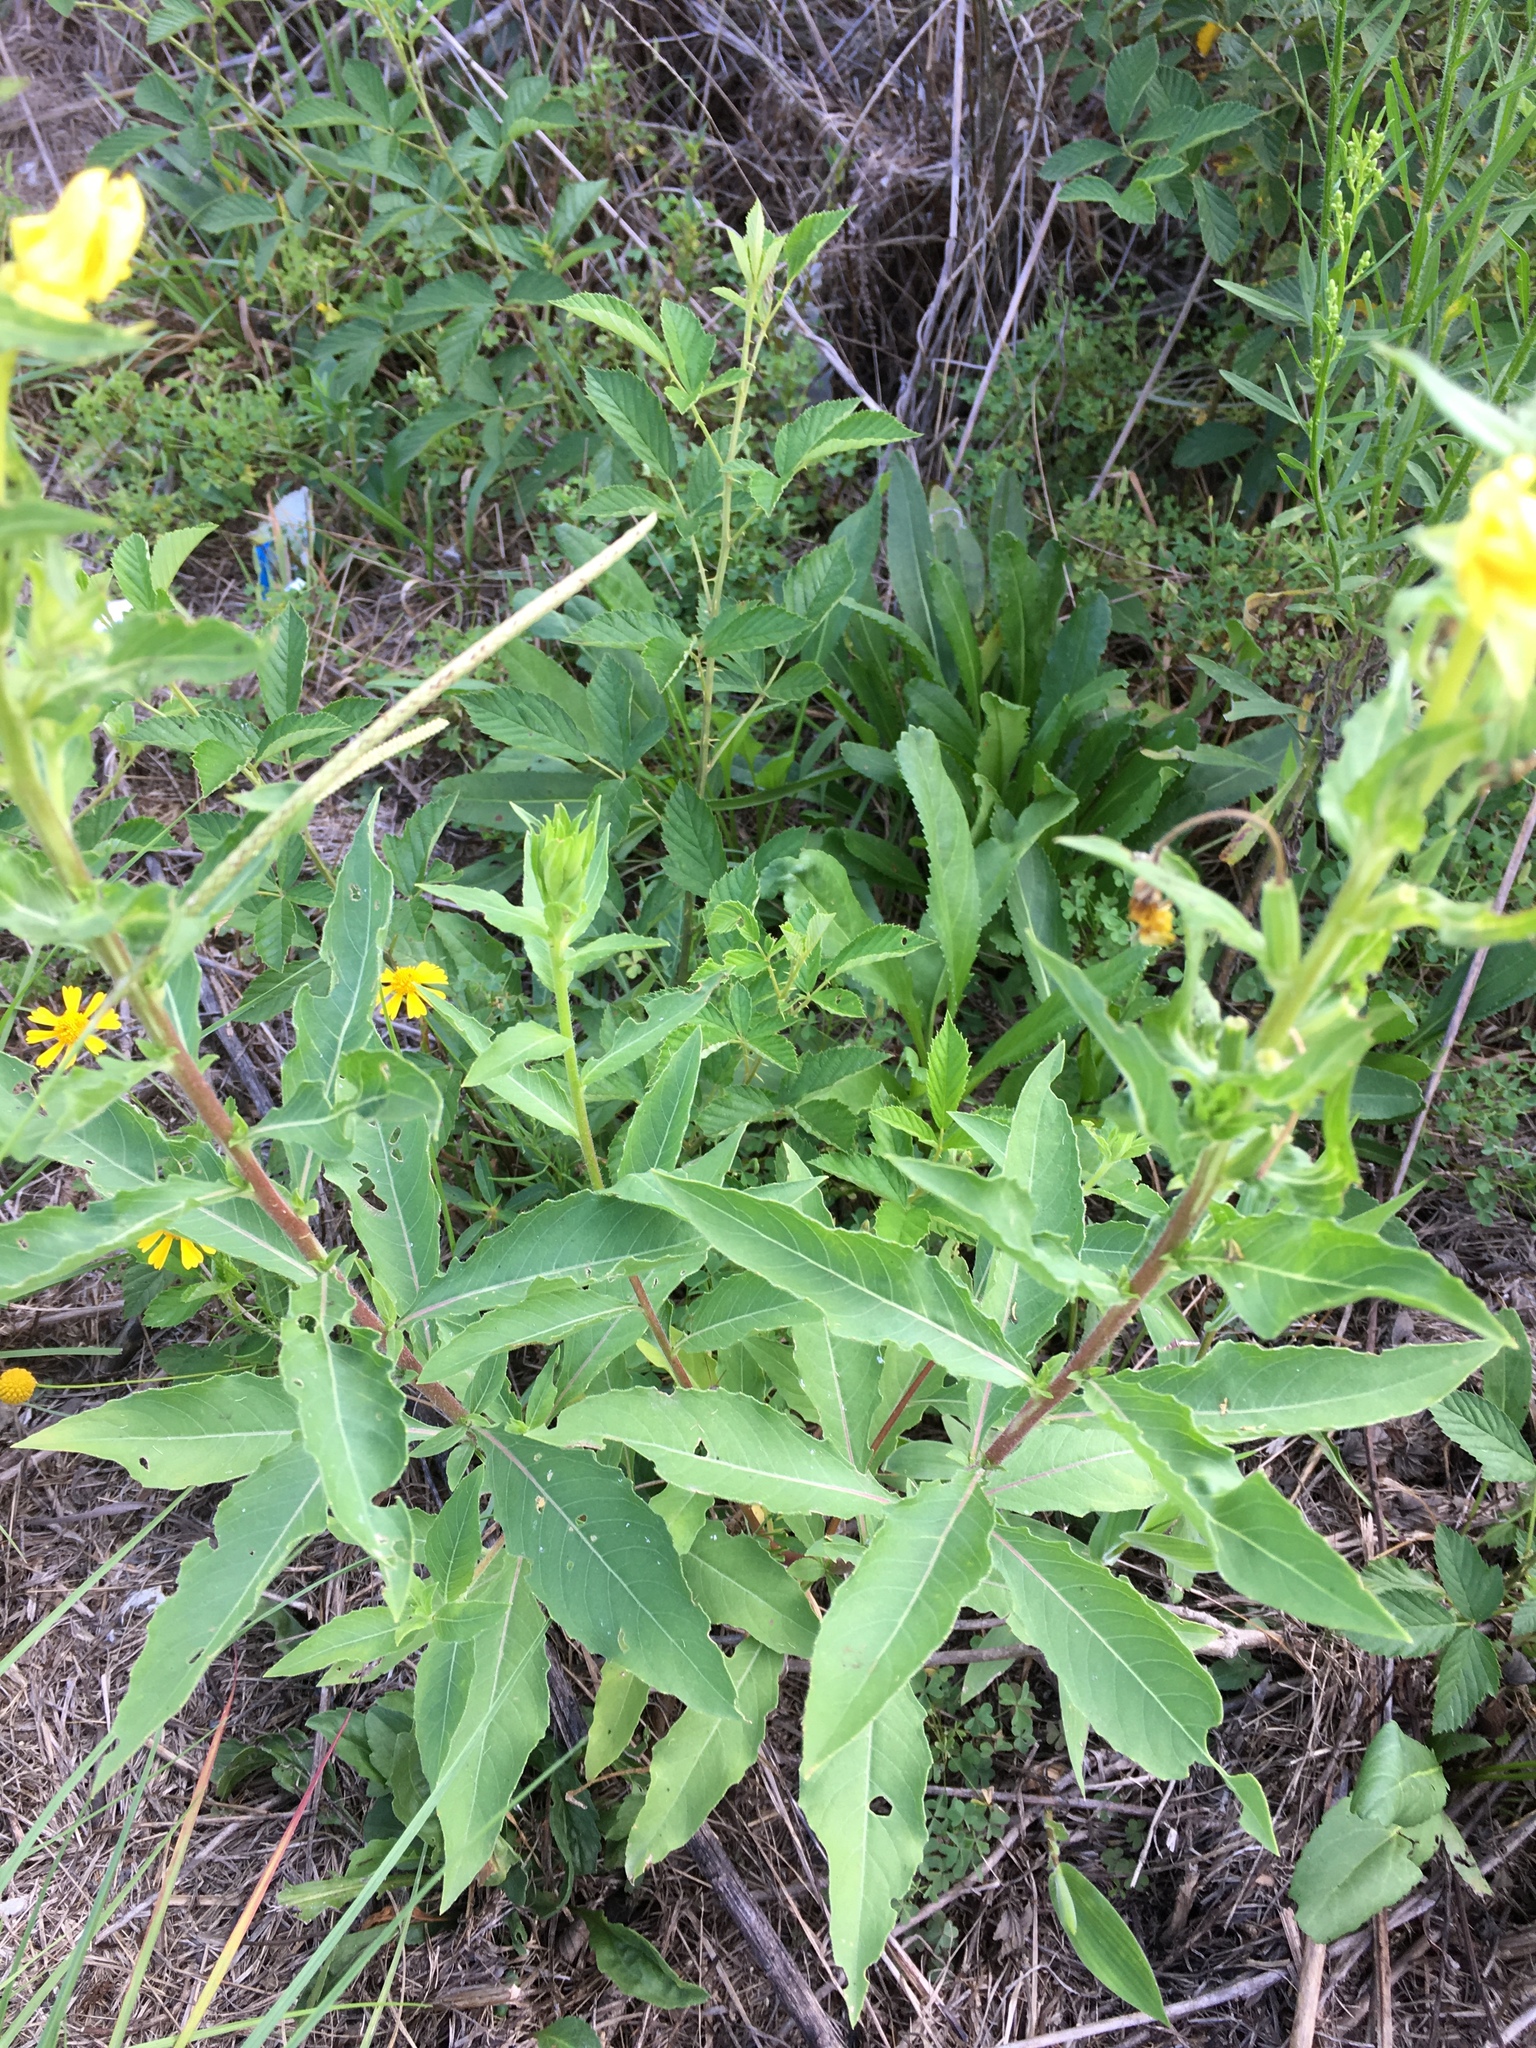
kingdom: Plantae
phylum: Tracheophyta
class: Magnoliopsida
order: Myrtales
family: Onagraceae
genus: Oenothera
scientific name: Oenothera biennis
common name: Common evening-primrose
